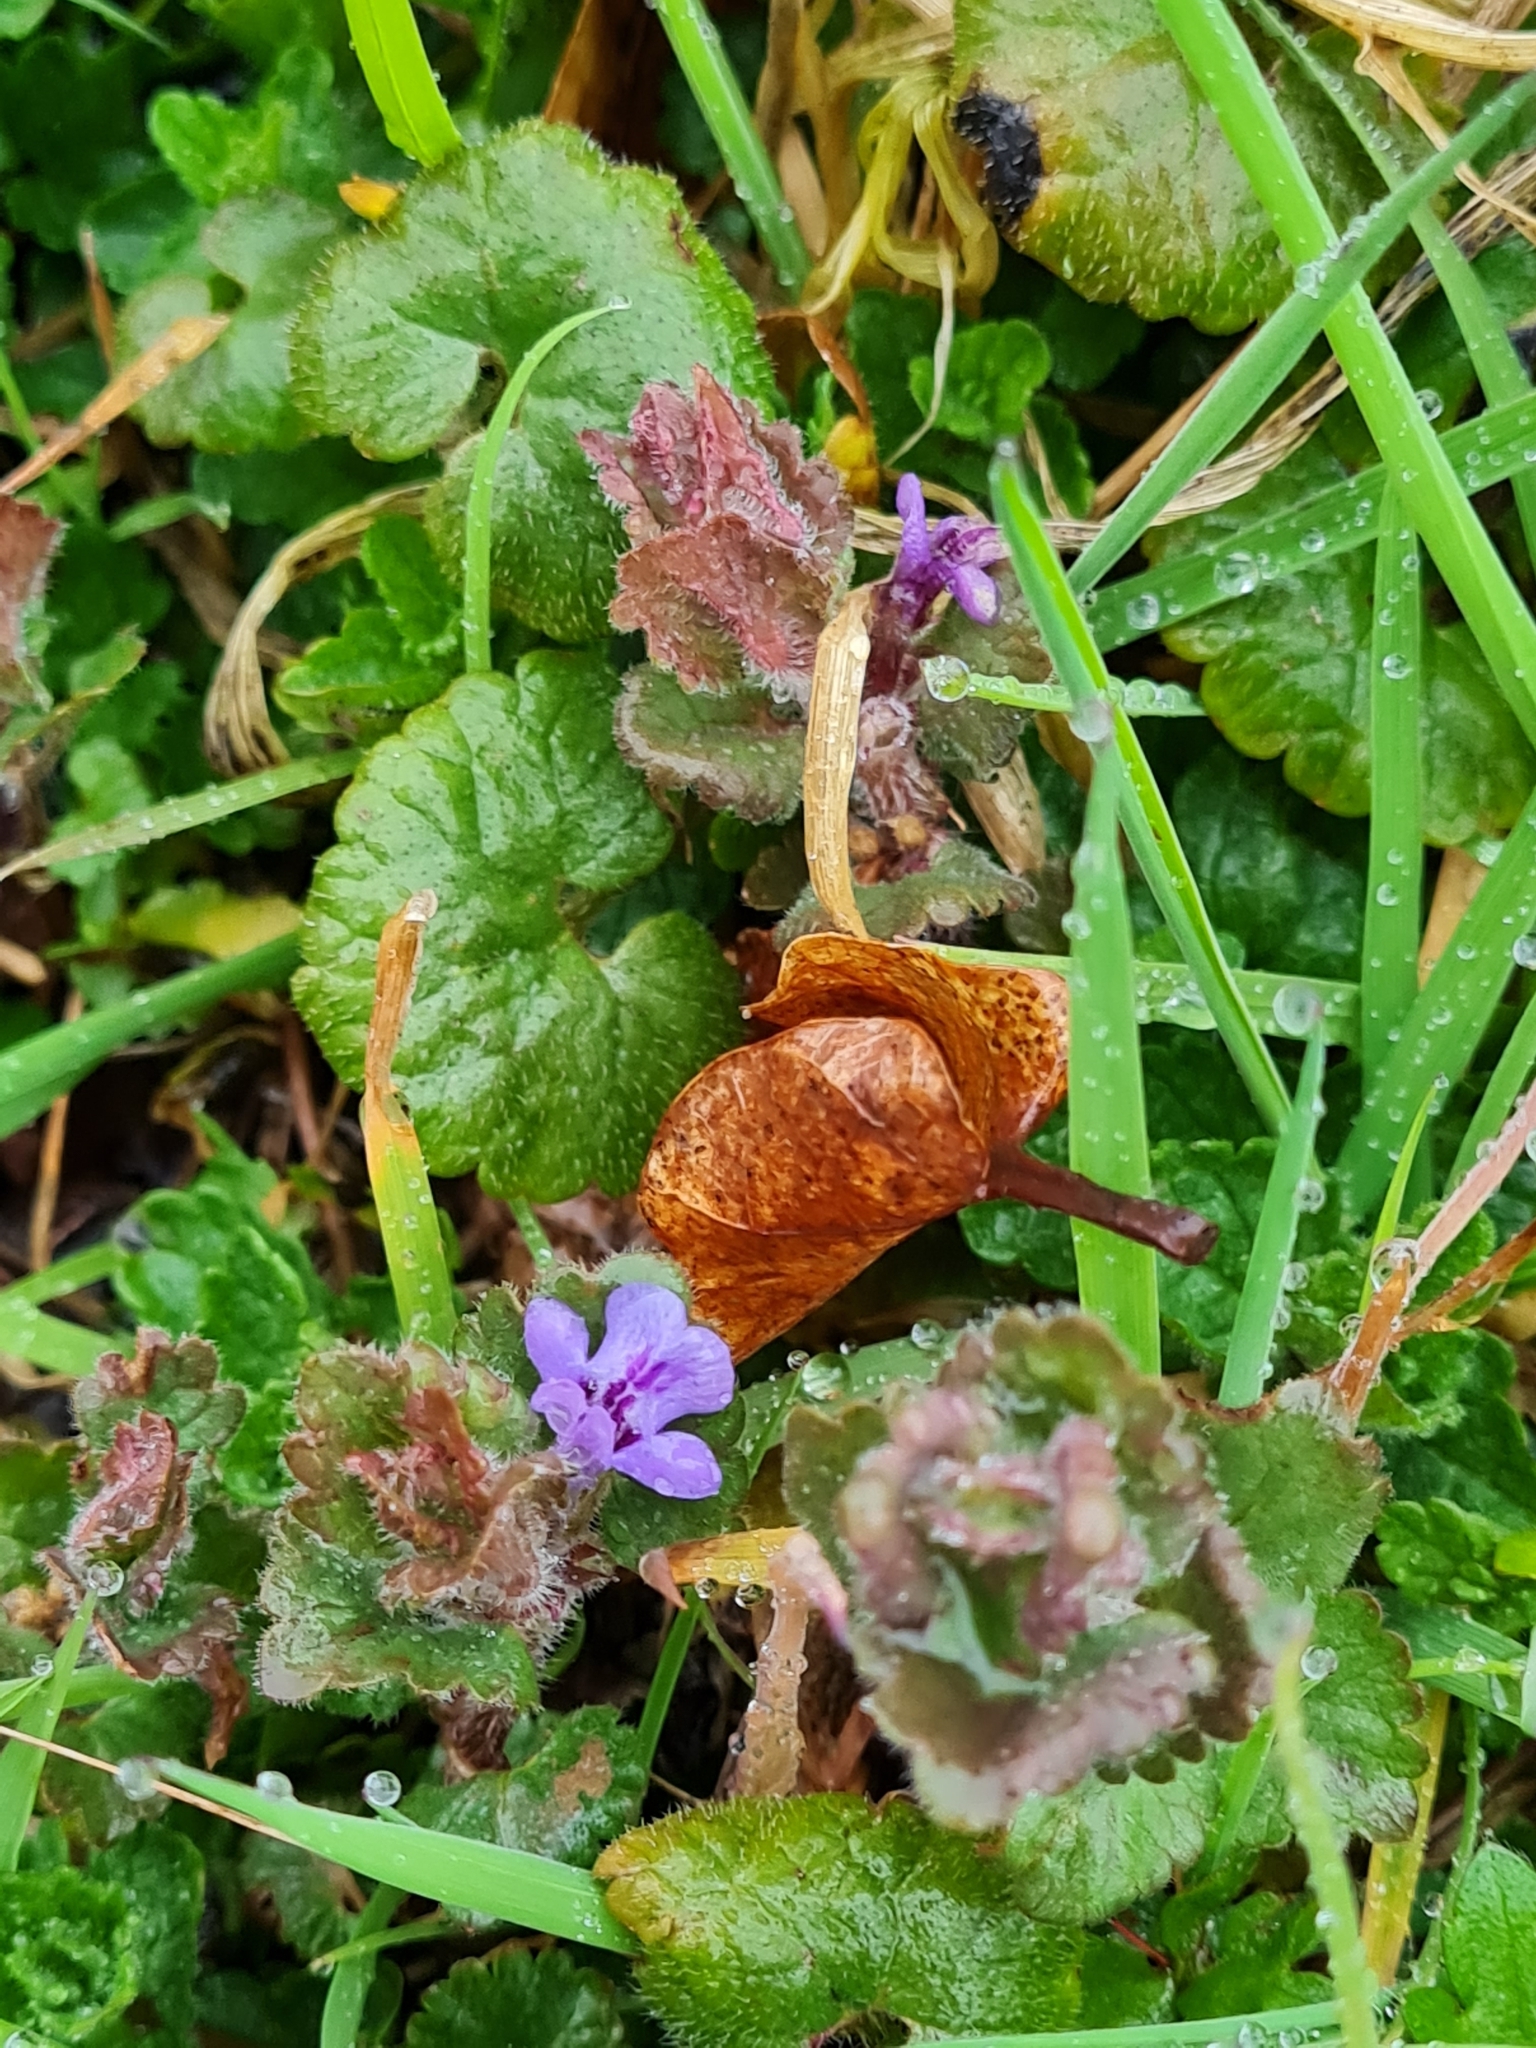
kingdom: Plantae
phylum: Tracheophyta
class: Magnoliopsida
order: Lamiales
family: Lamiaceae
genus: Glechoma
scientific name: Glechoma hederacea
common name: Ground ivy
